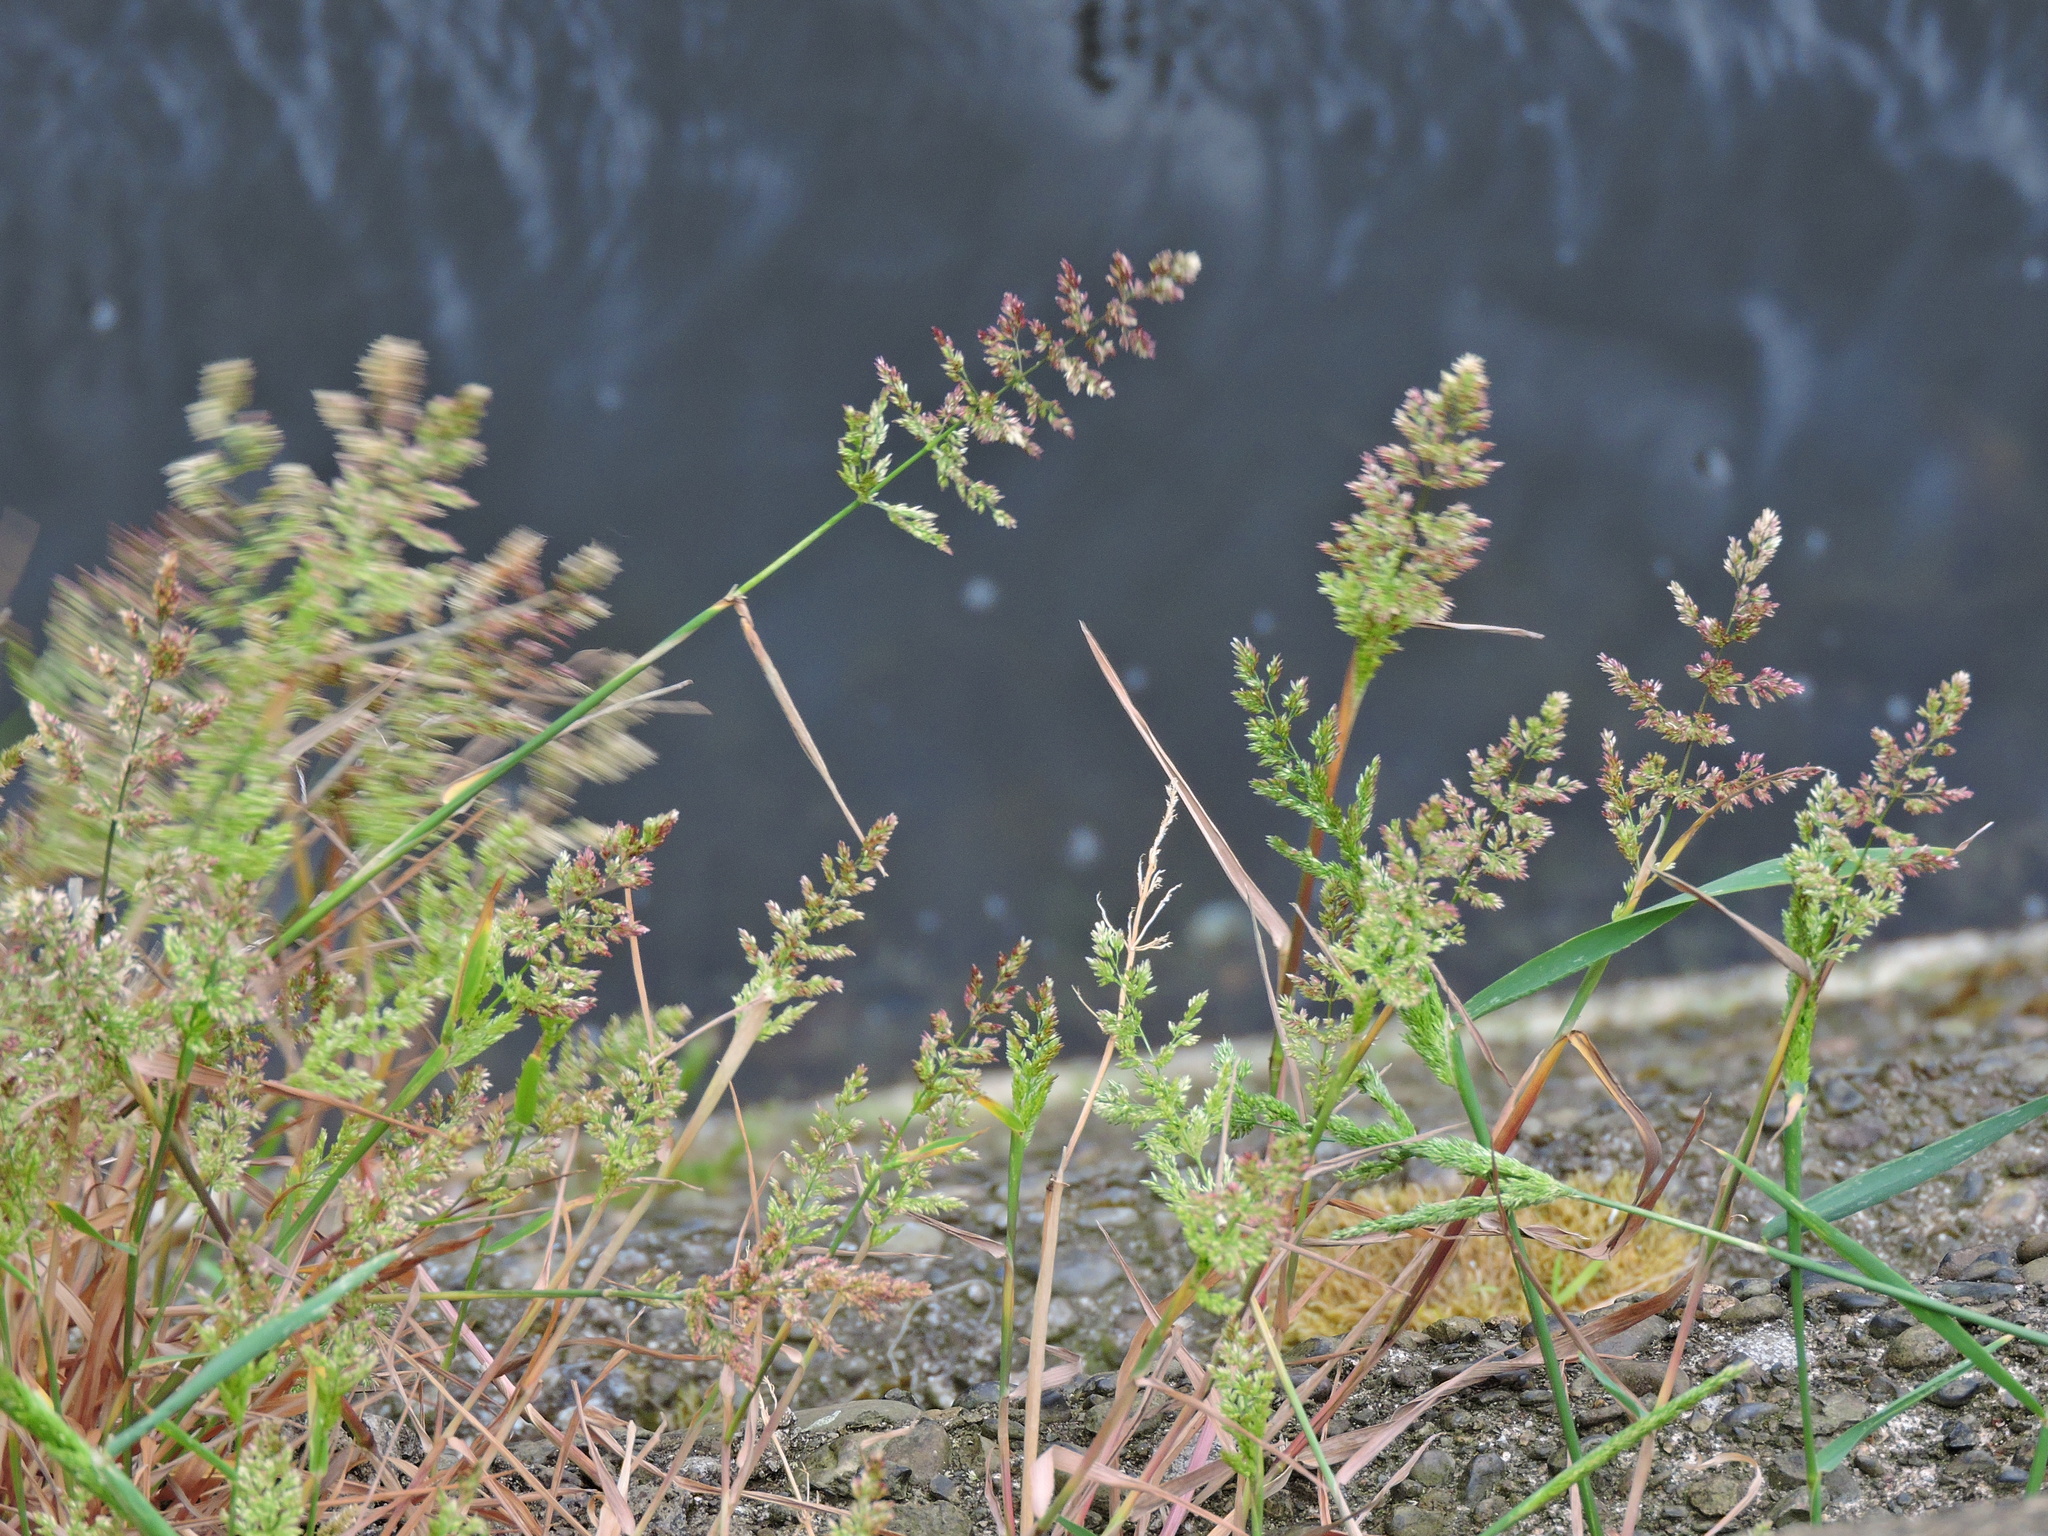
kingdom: Plantae
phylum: Tracheophyta
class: Liliopsida
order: Poales
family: Poaceae
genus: Polypogon
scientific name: Polypogon viridis
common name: Water bent
